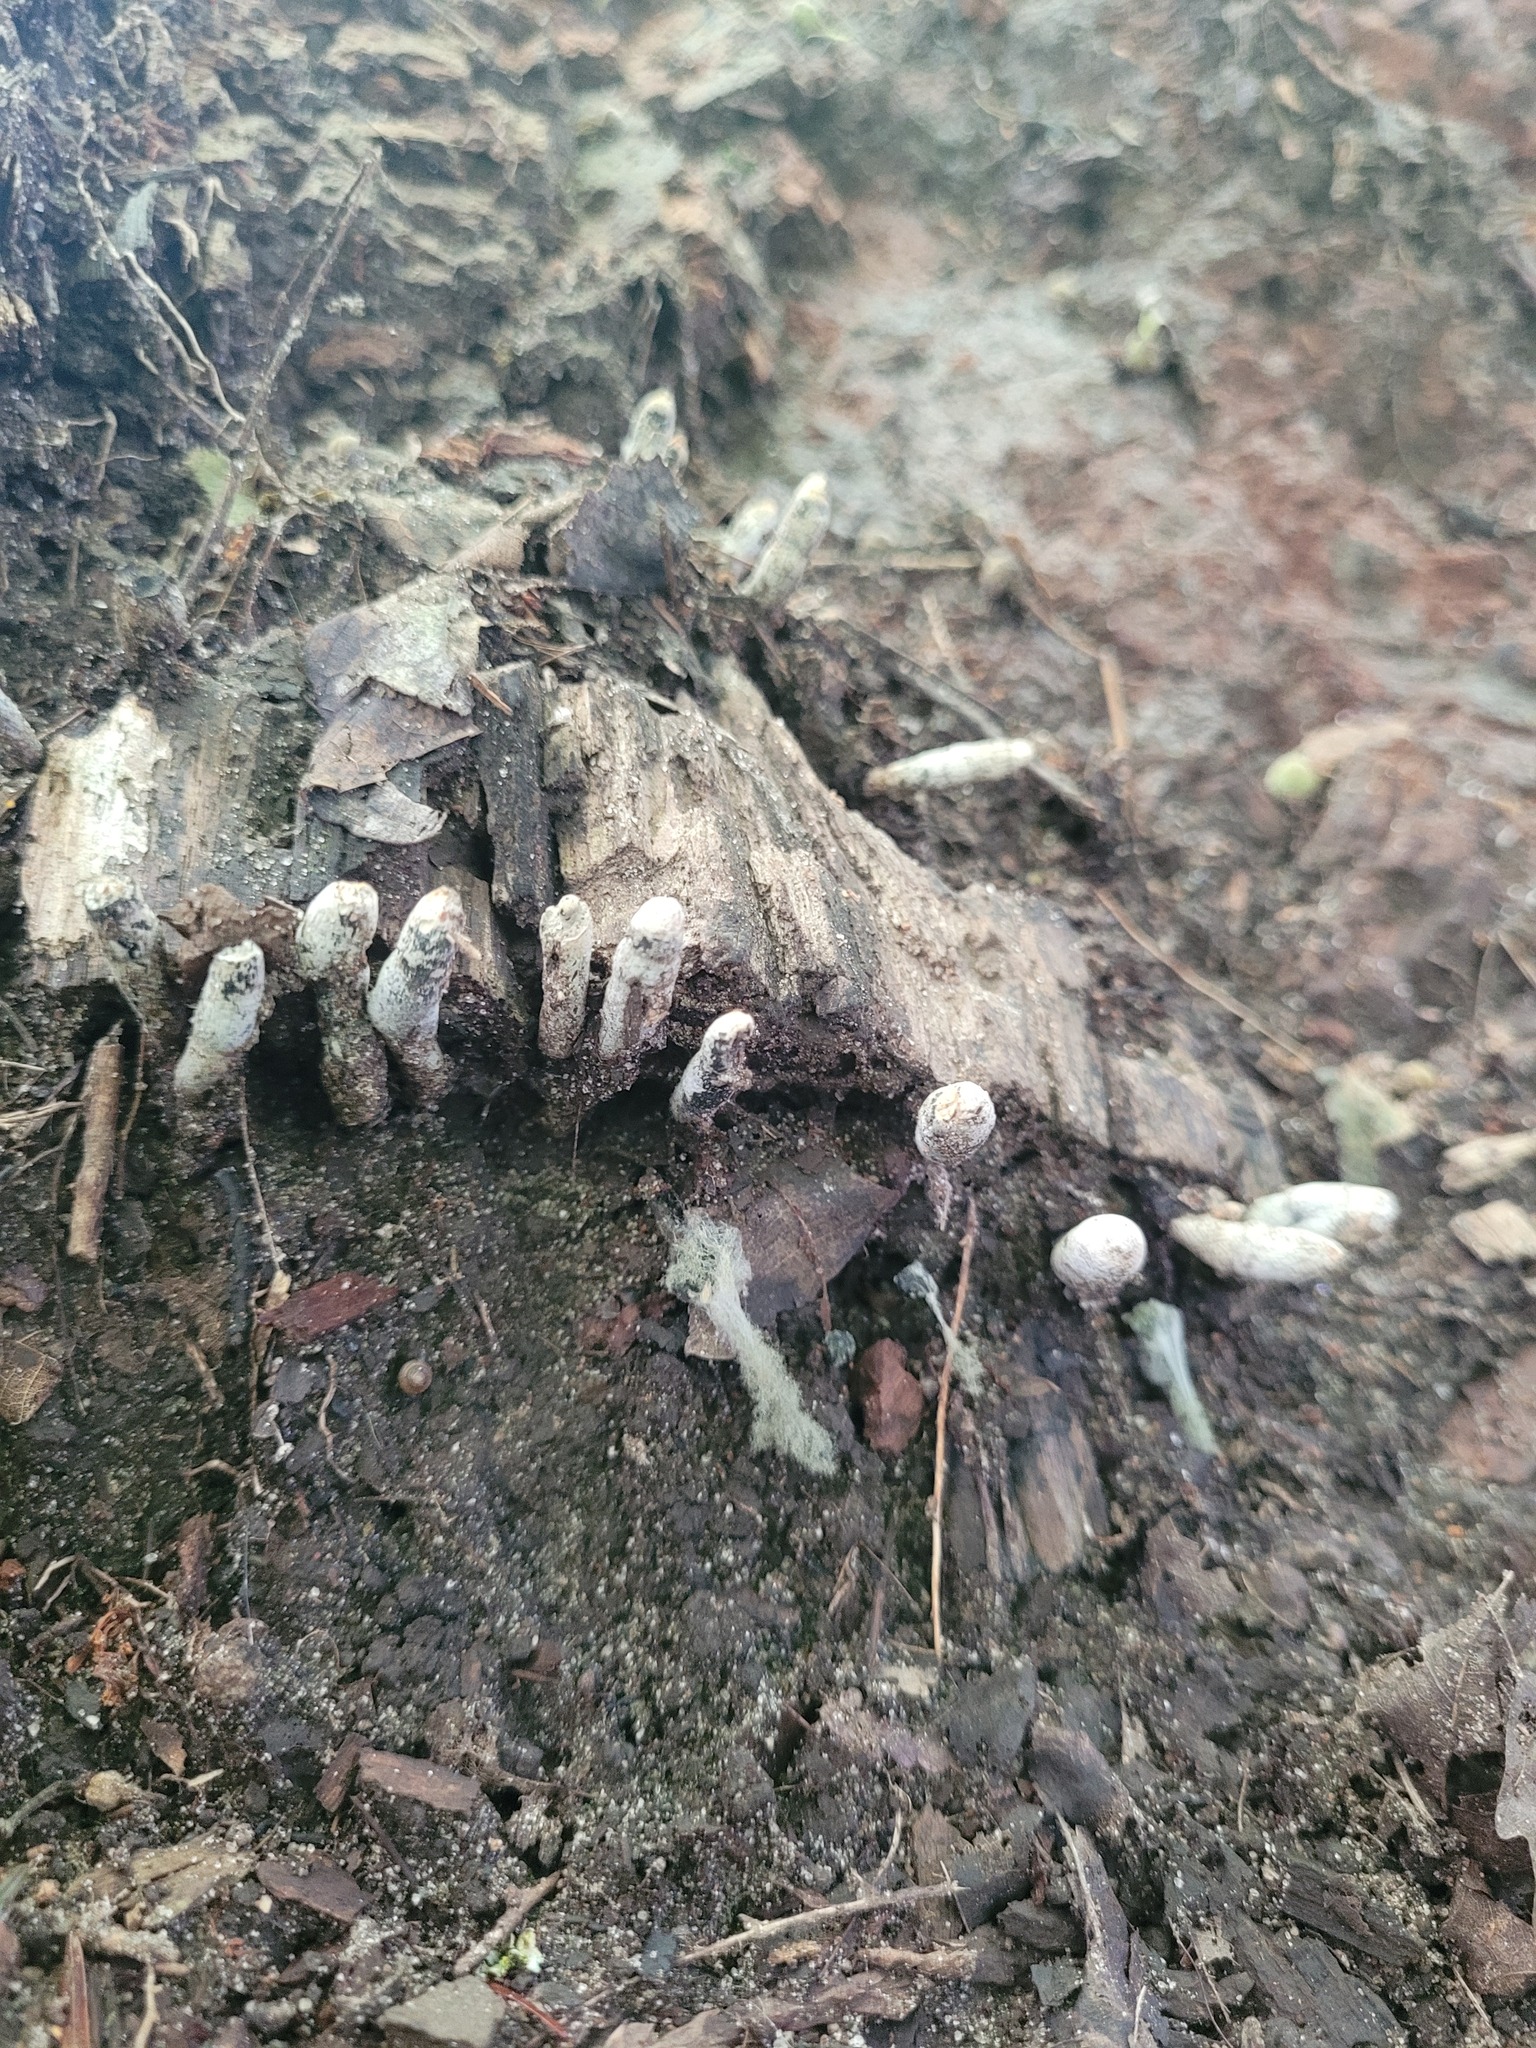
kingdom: Fungi
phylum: Ascomycota
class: Sordariomycetes
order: Xylariales
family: Xylariaceae
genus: Xylaria
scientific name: Xylaria polymorpha
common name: Dead man's fingers
